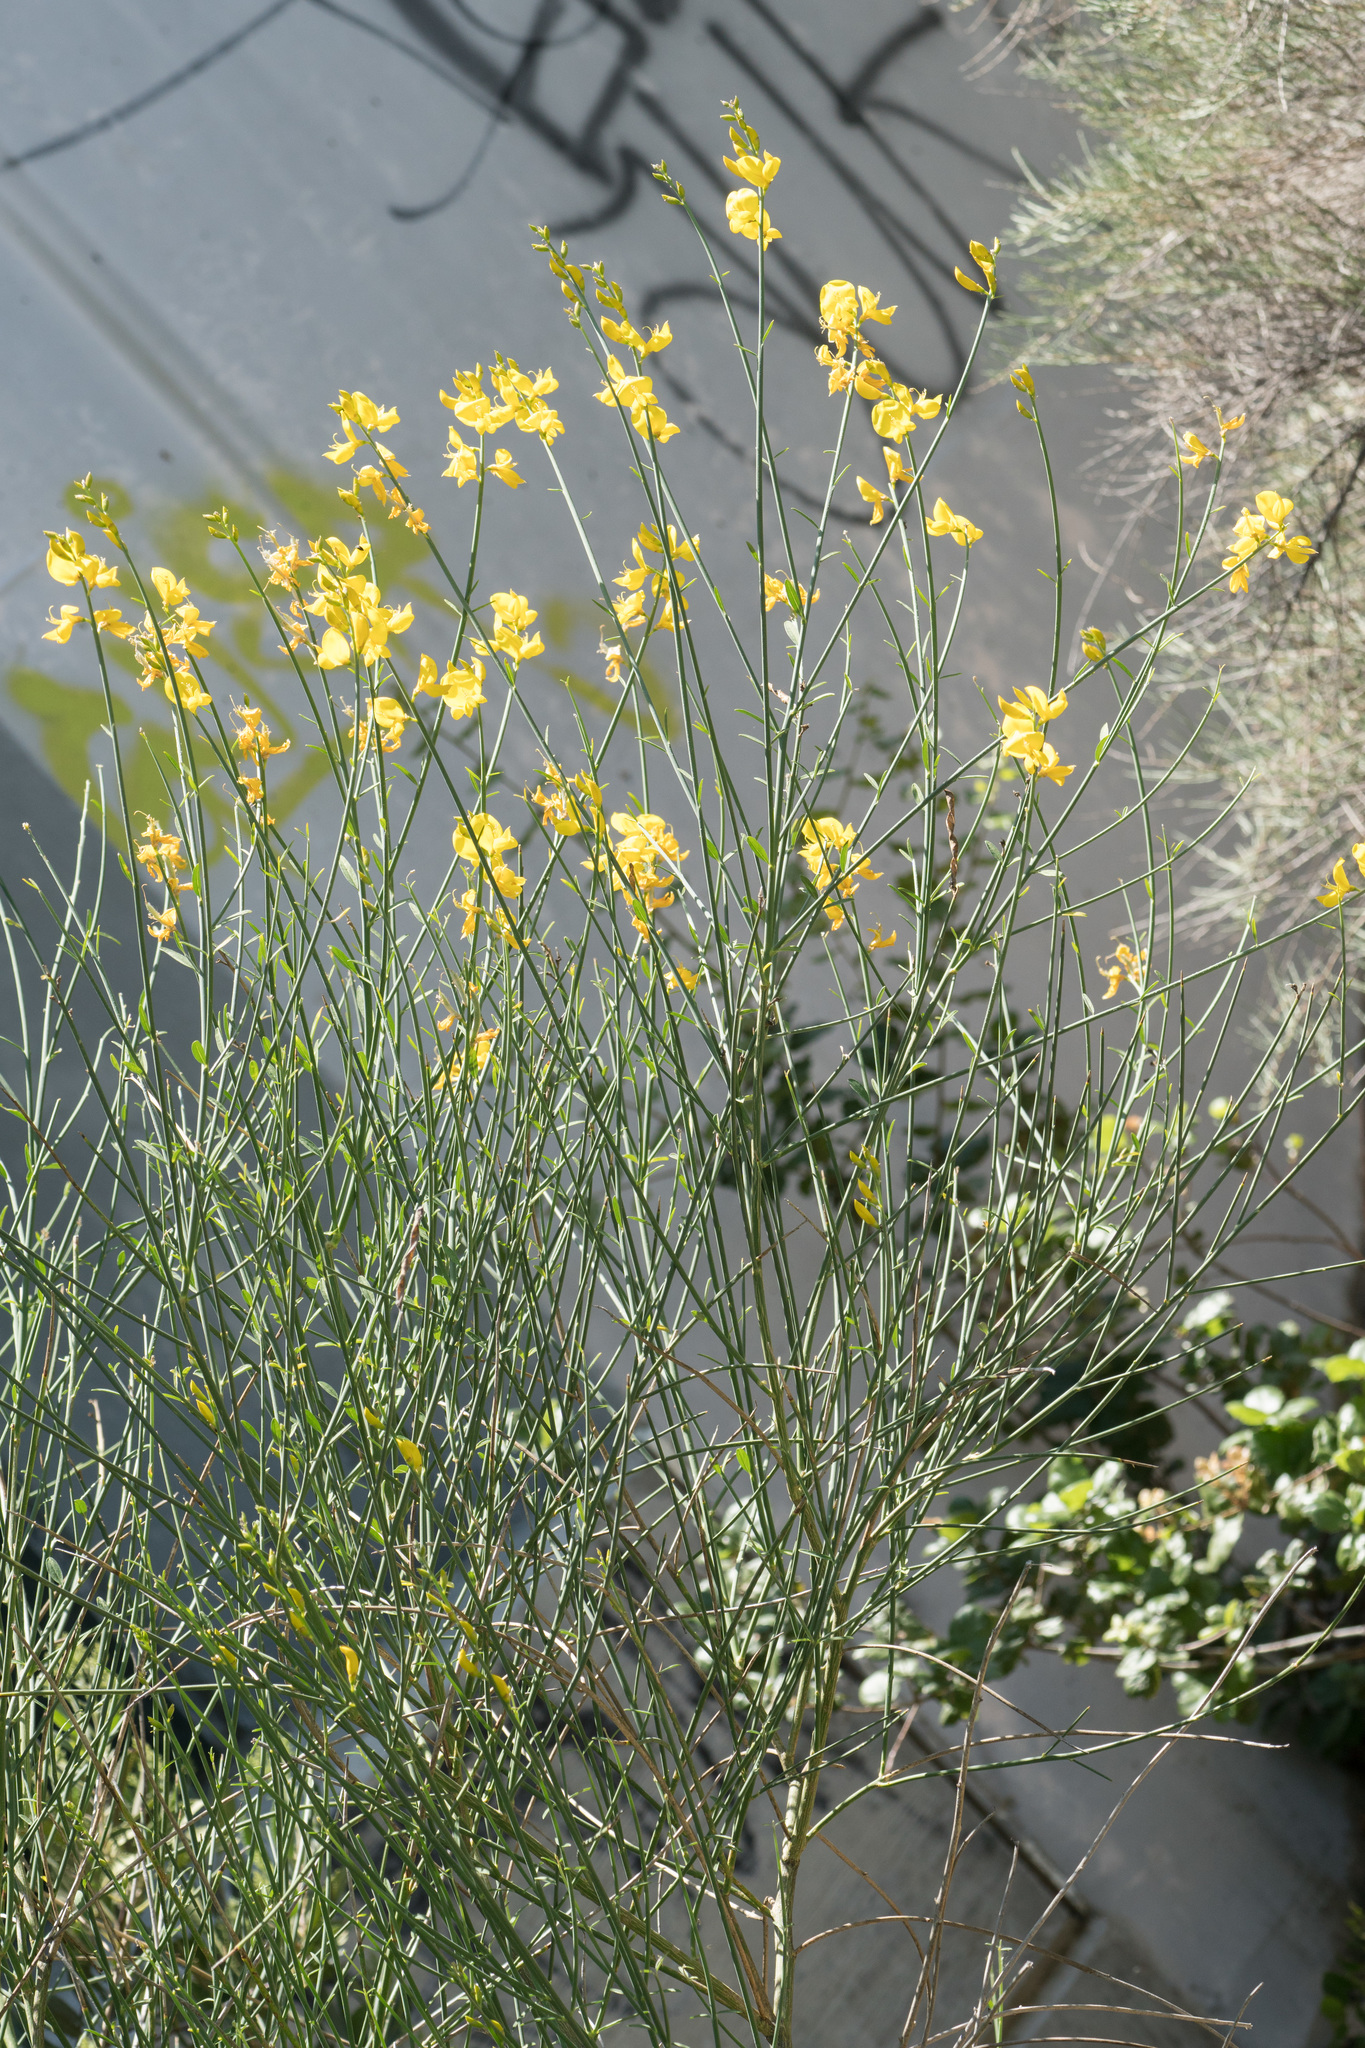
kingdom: Plantae
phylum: Tracheophyta
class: Magnoliopsida
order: Fabales
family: Fabaceae
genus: Spartium
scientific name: Spartium junceum
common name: Spanish broom
